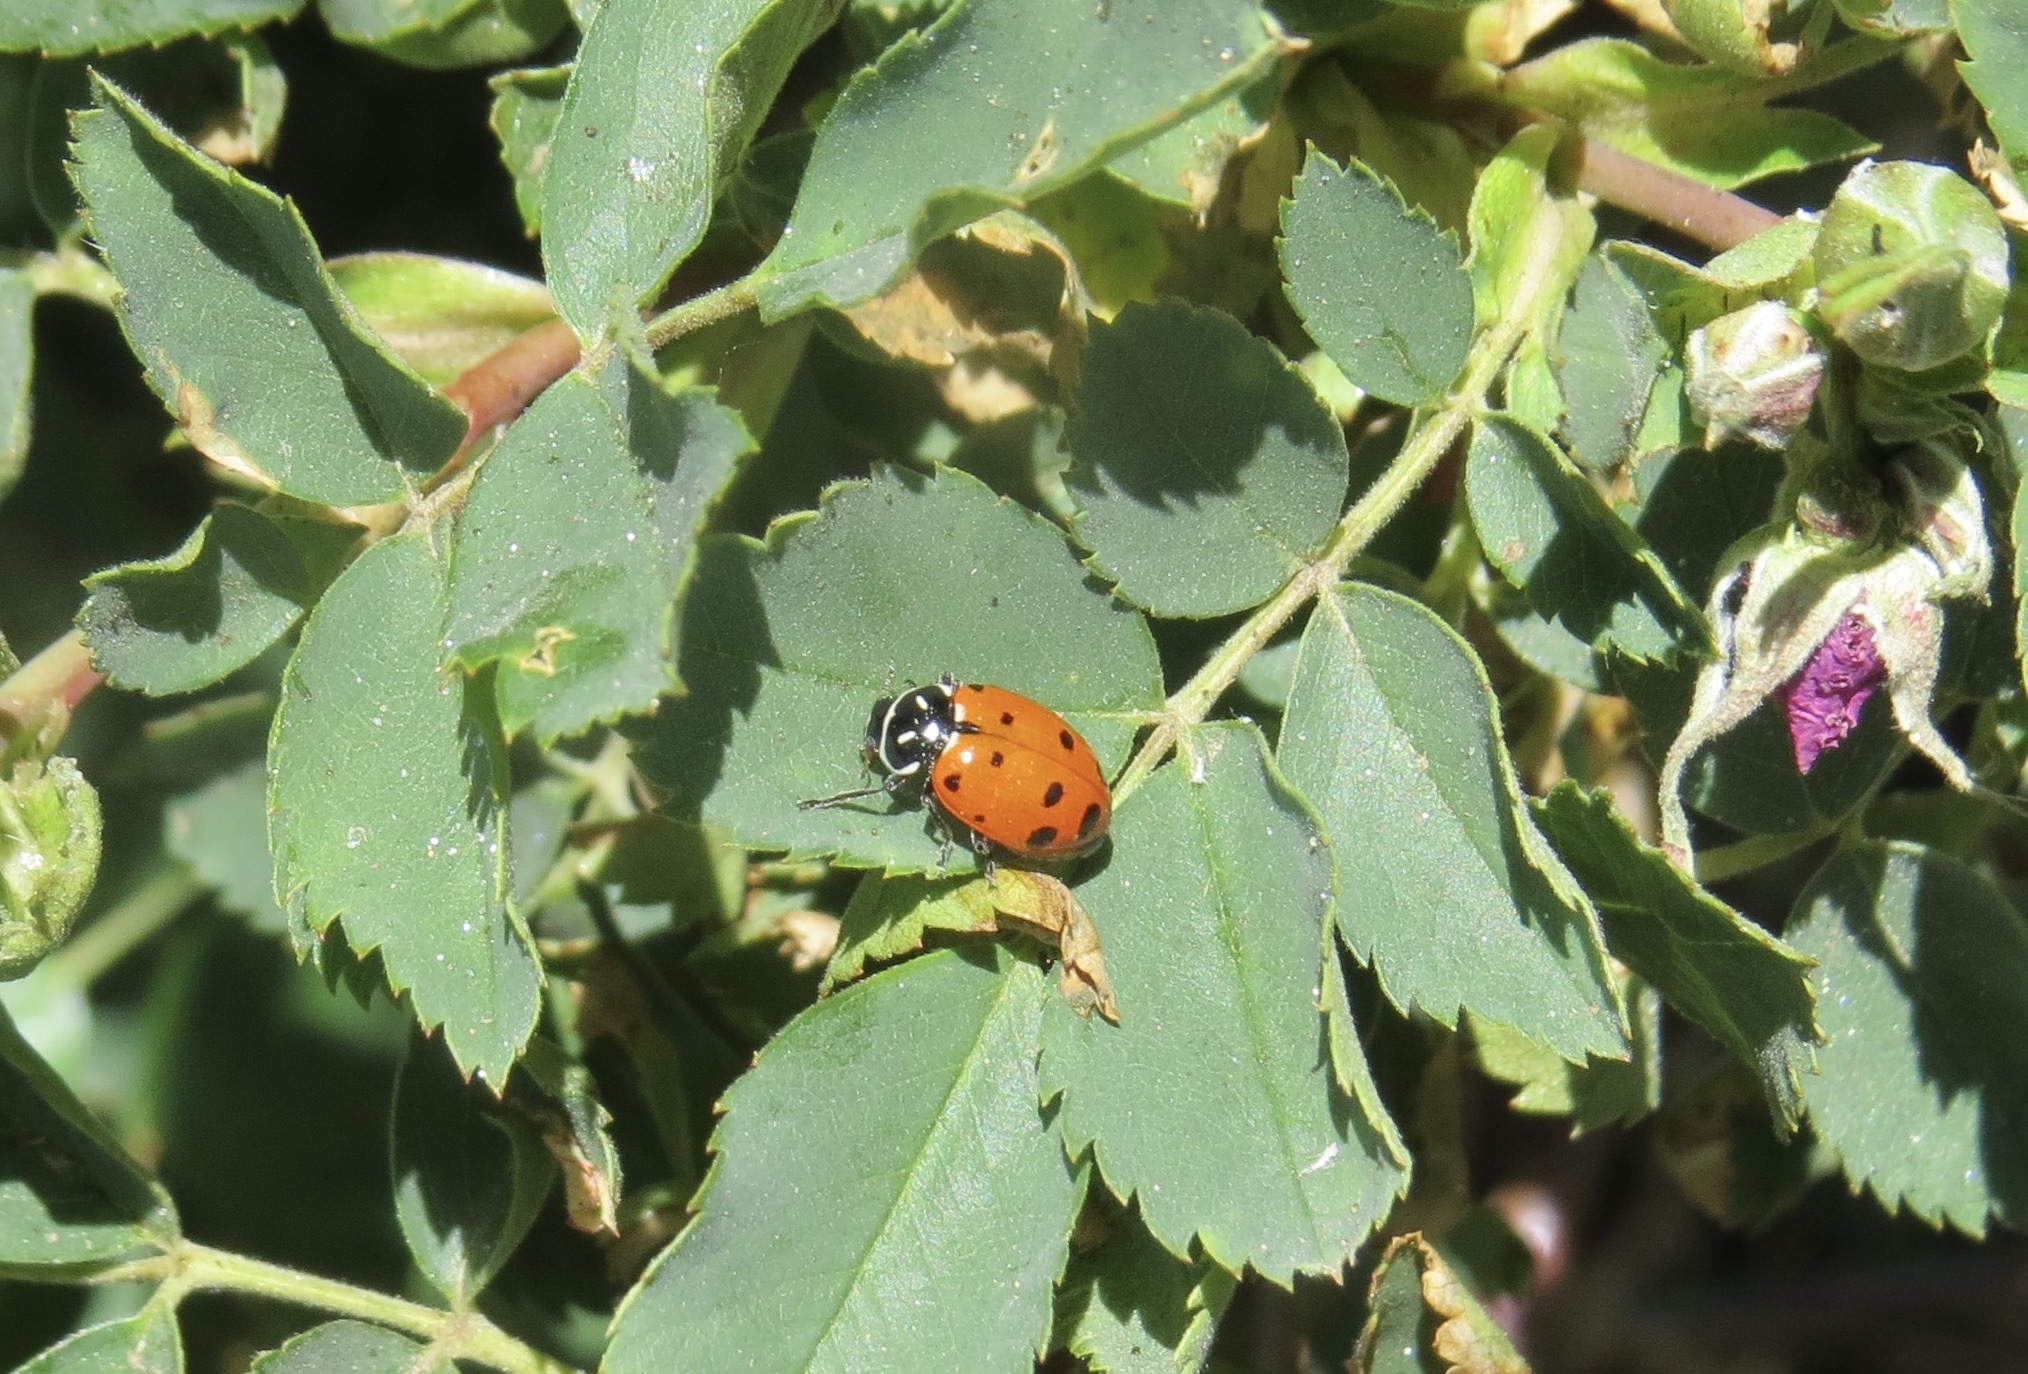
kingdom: Animalia
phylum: Arthropoda
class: Insecta
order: Coleoptera
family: Coccinellidae
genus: Hippodamia
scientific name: Hippodamia convergens
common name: Convergent lady beetle
